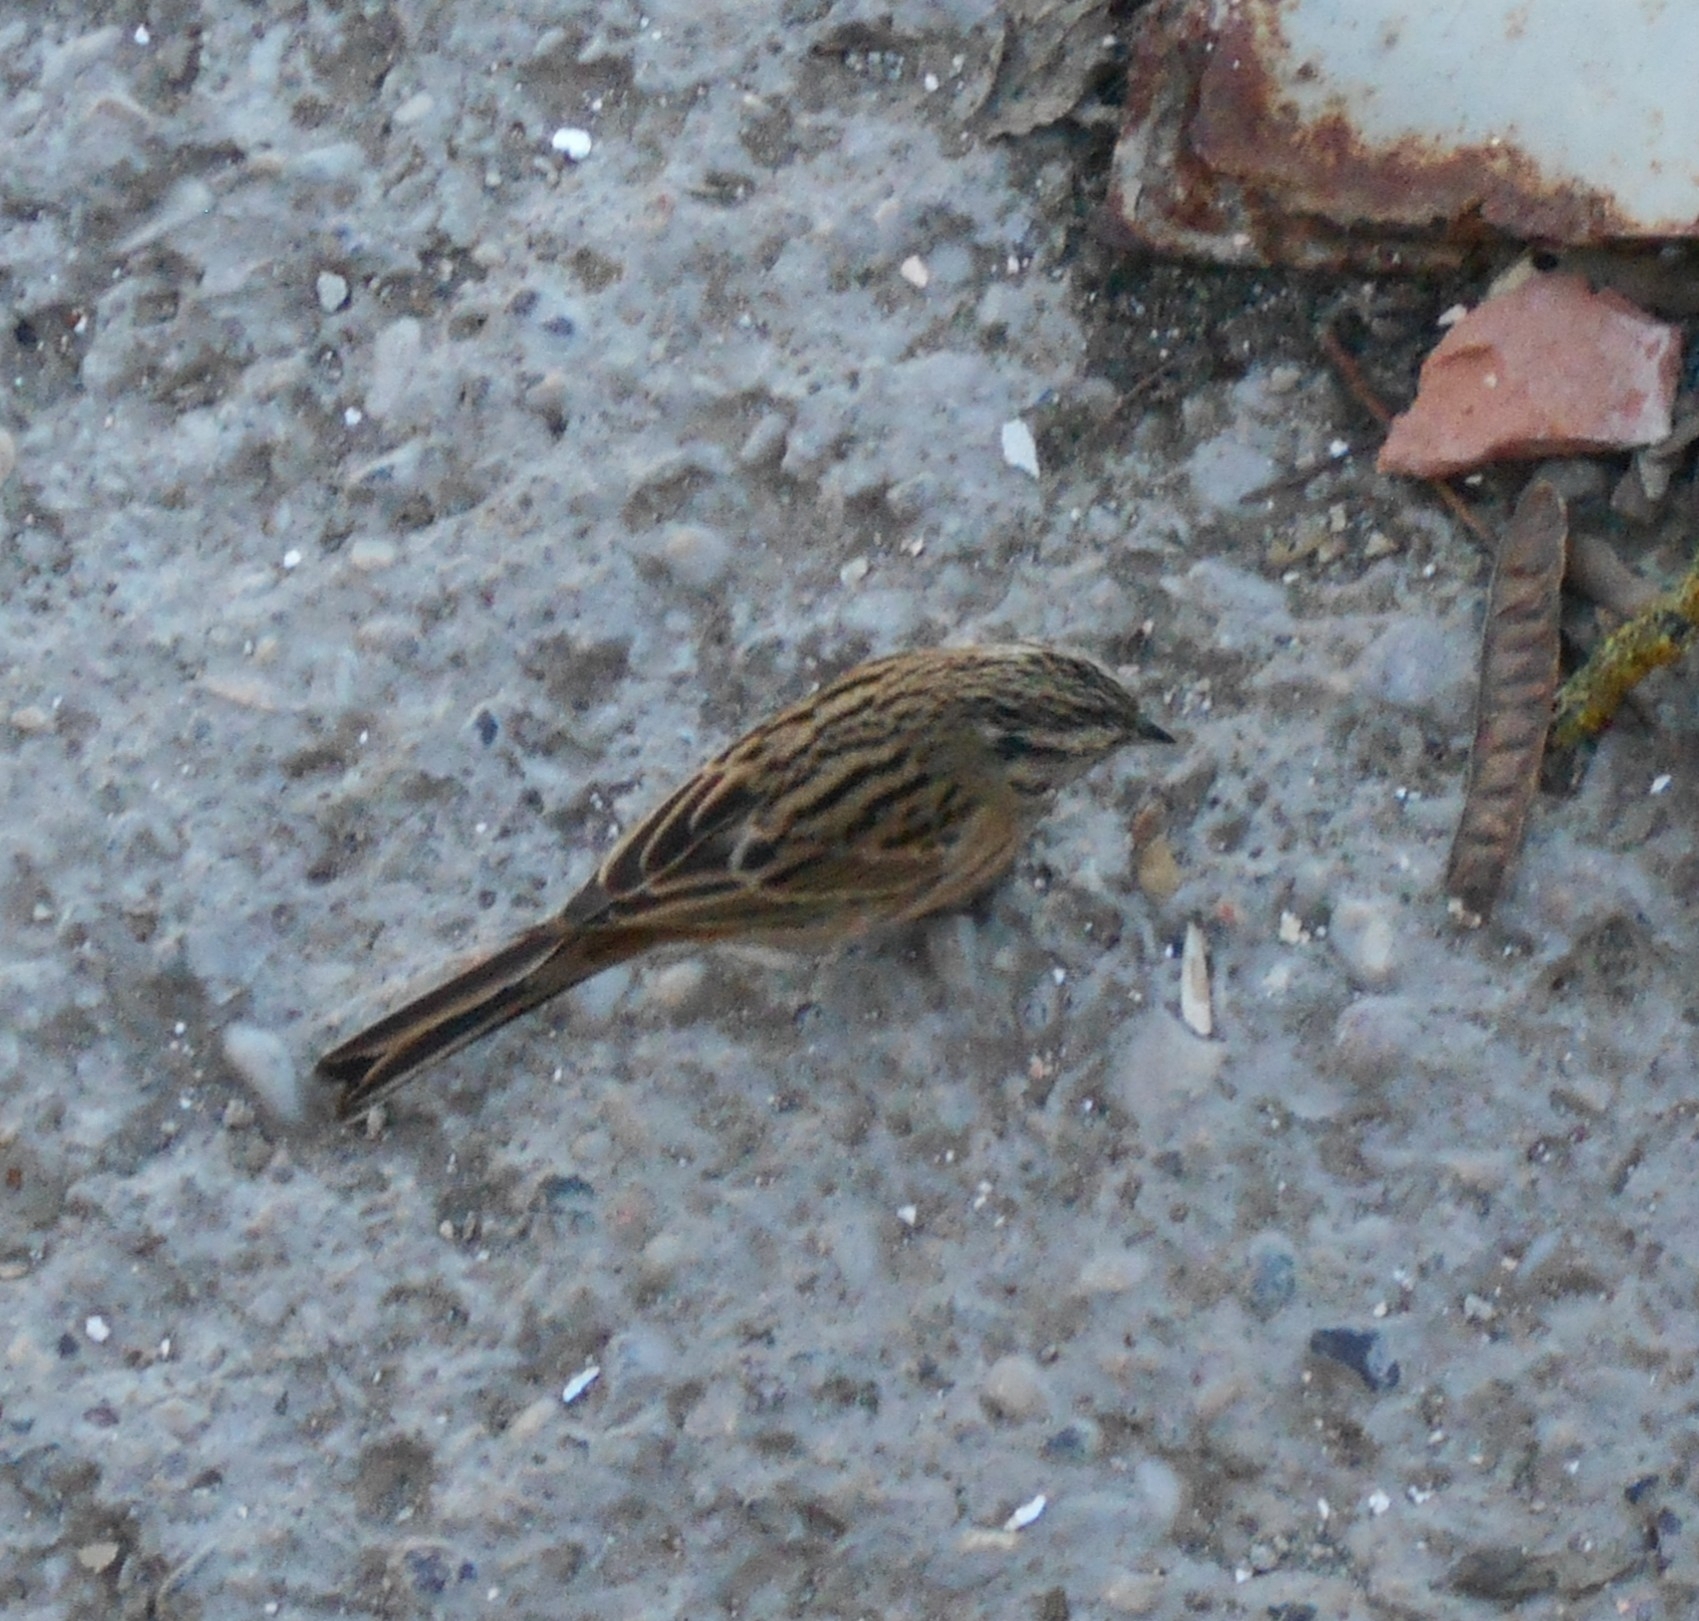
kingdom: Animalia
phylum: Chordata
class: Aves
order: Passeriformes
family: Emberizidae
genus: Emberiza
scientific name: Emberiza cia
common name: Rock bunting
